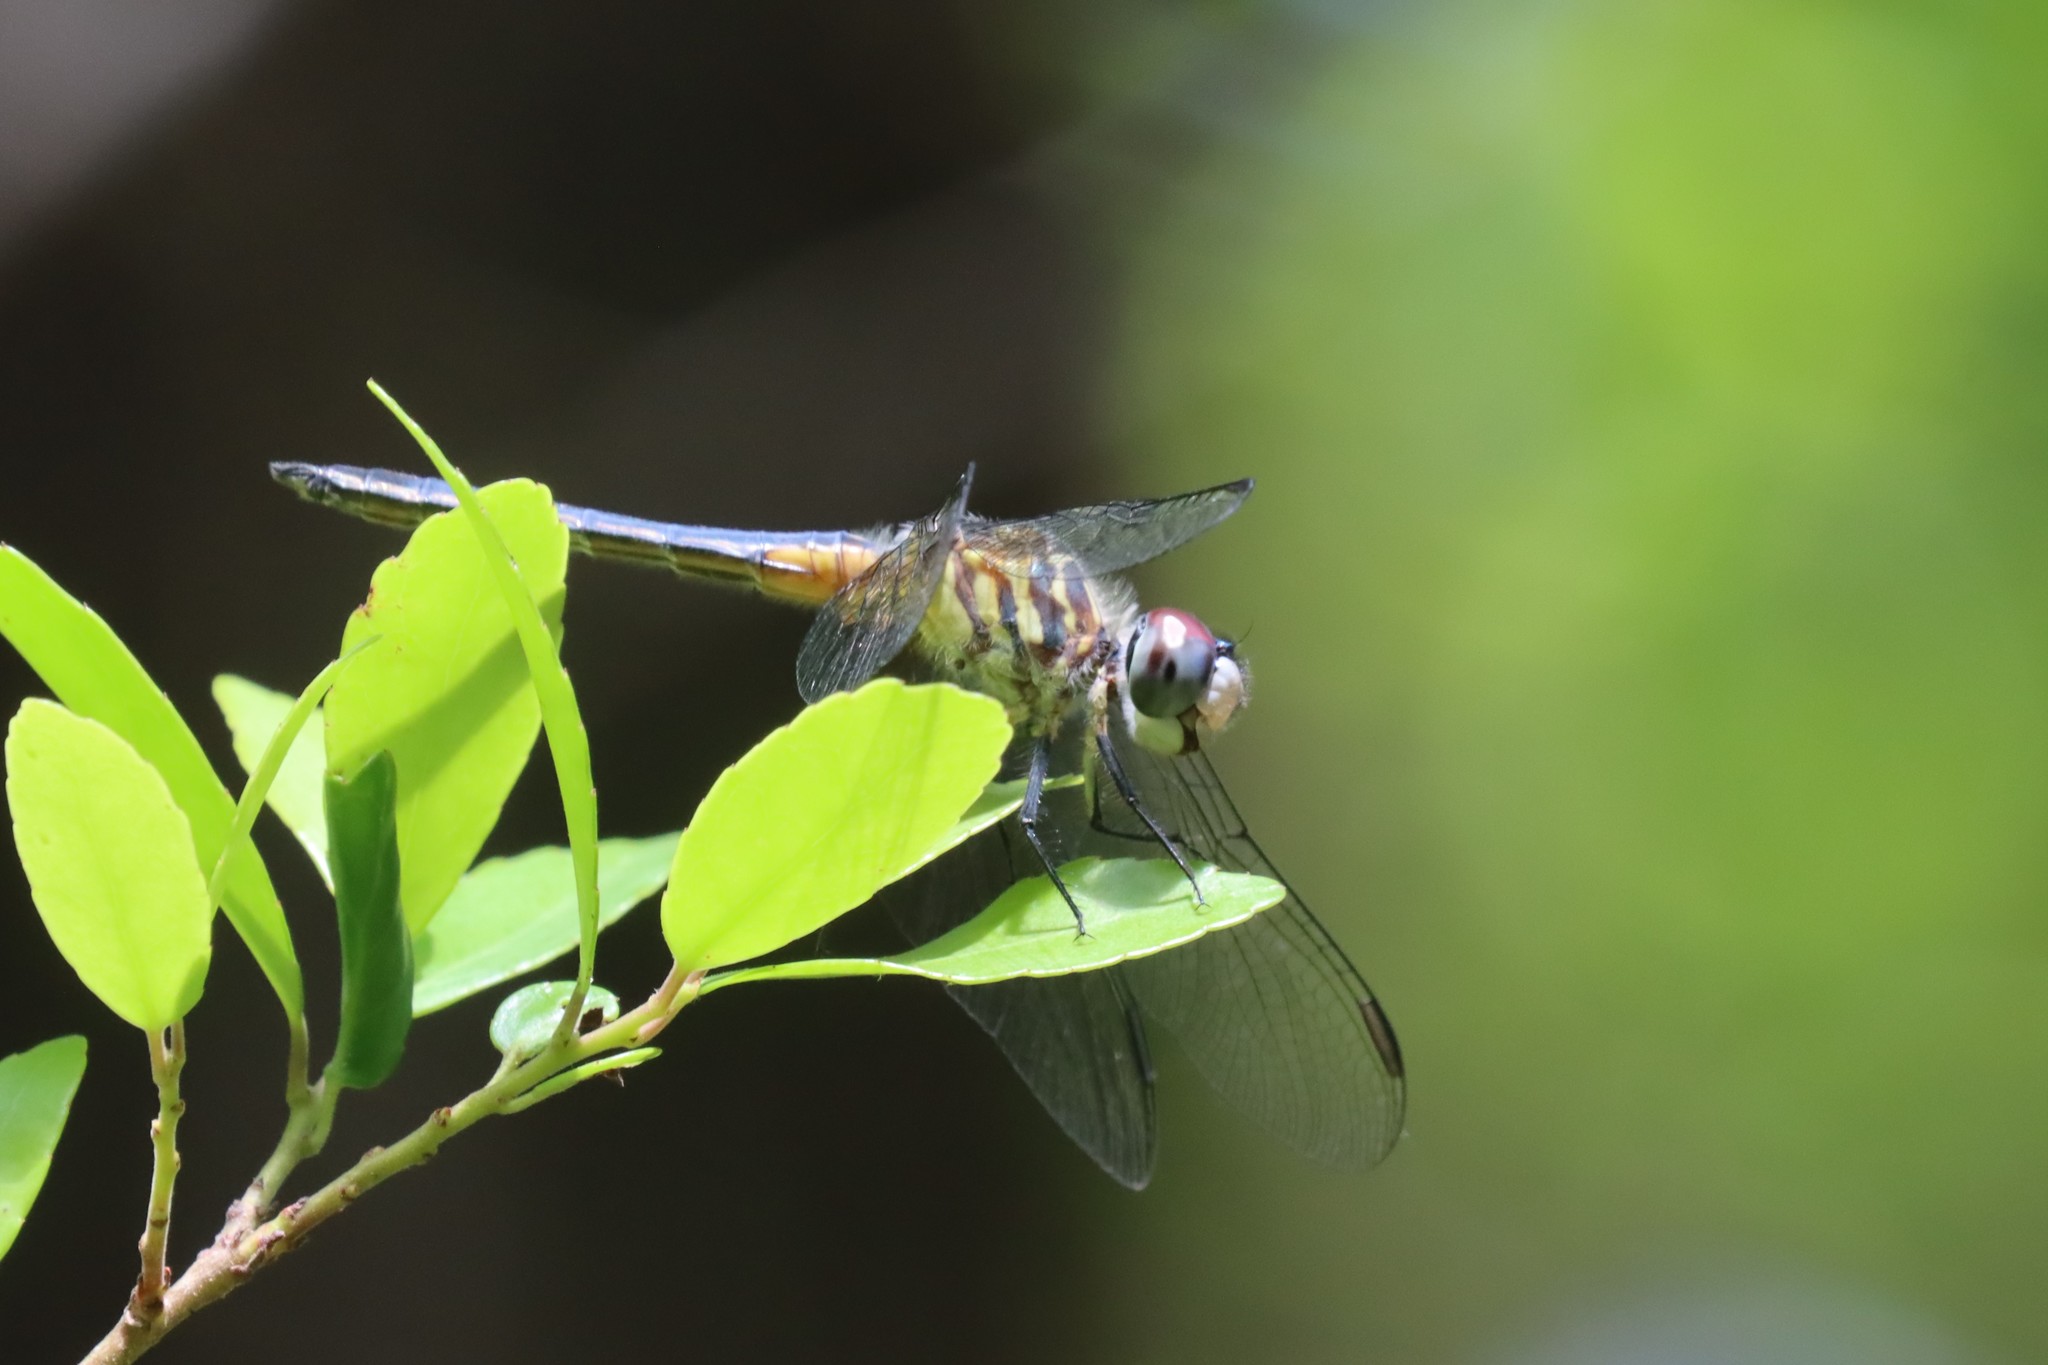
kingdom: Animalia
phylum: Arthropoda
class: Insecta
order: Odonata
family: Libellulidae
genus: Pachydiplax
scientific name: Pachydiplax longipennis
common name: Blue dasher
